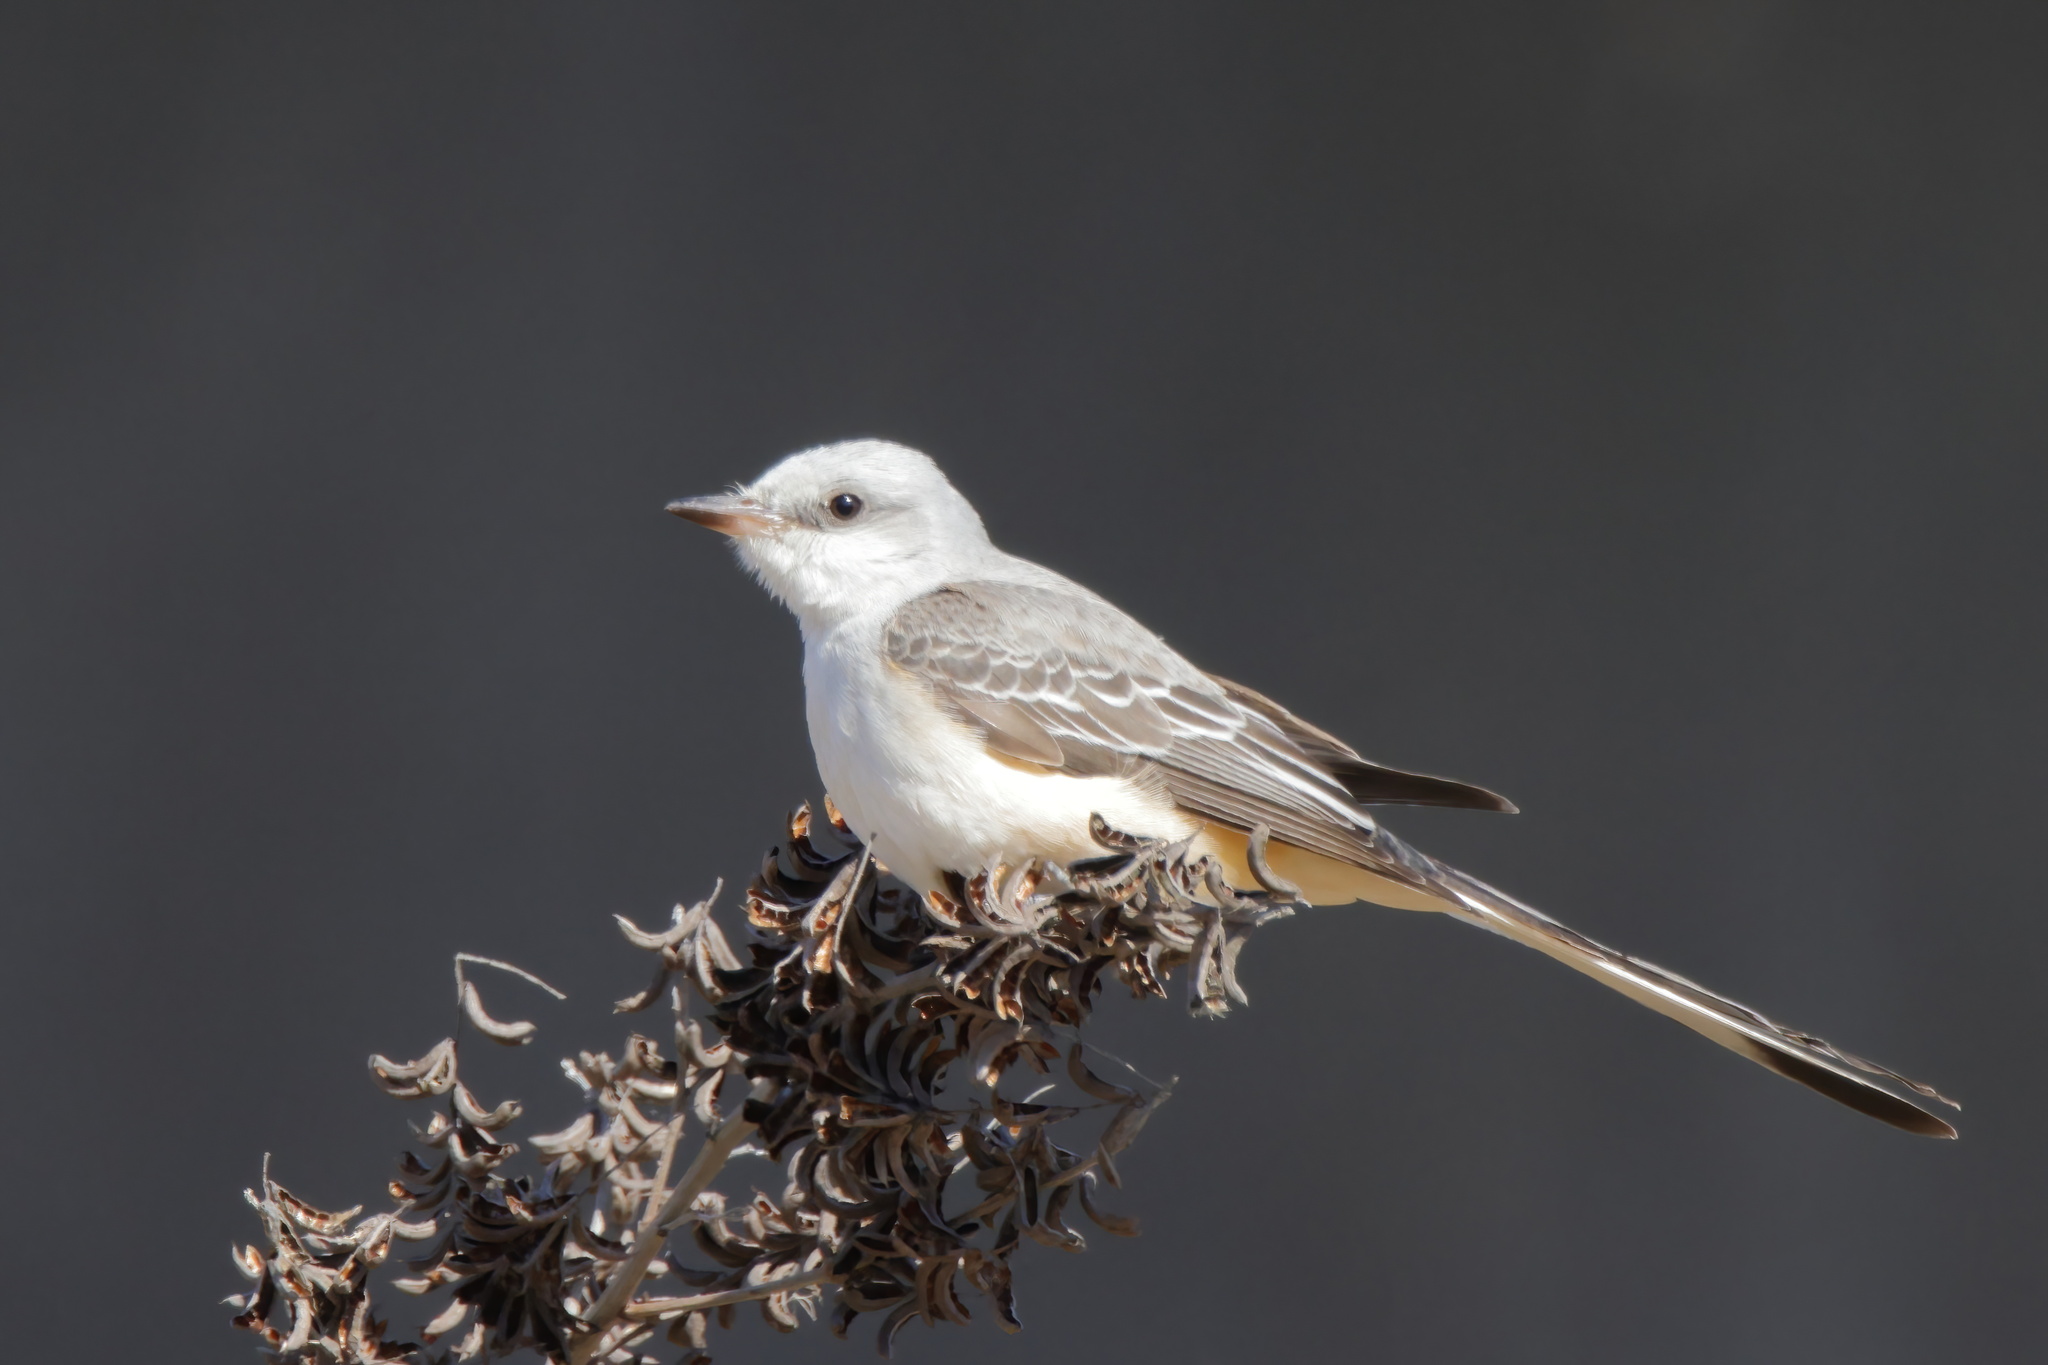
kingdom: Animalia
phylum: Chordata
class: Aves
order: Passeriformes
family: Tyrannidae
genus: Tyrannus
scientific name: Tyrannus forficatus
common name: Scissor-tailed flycatcher
